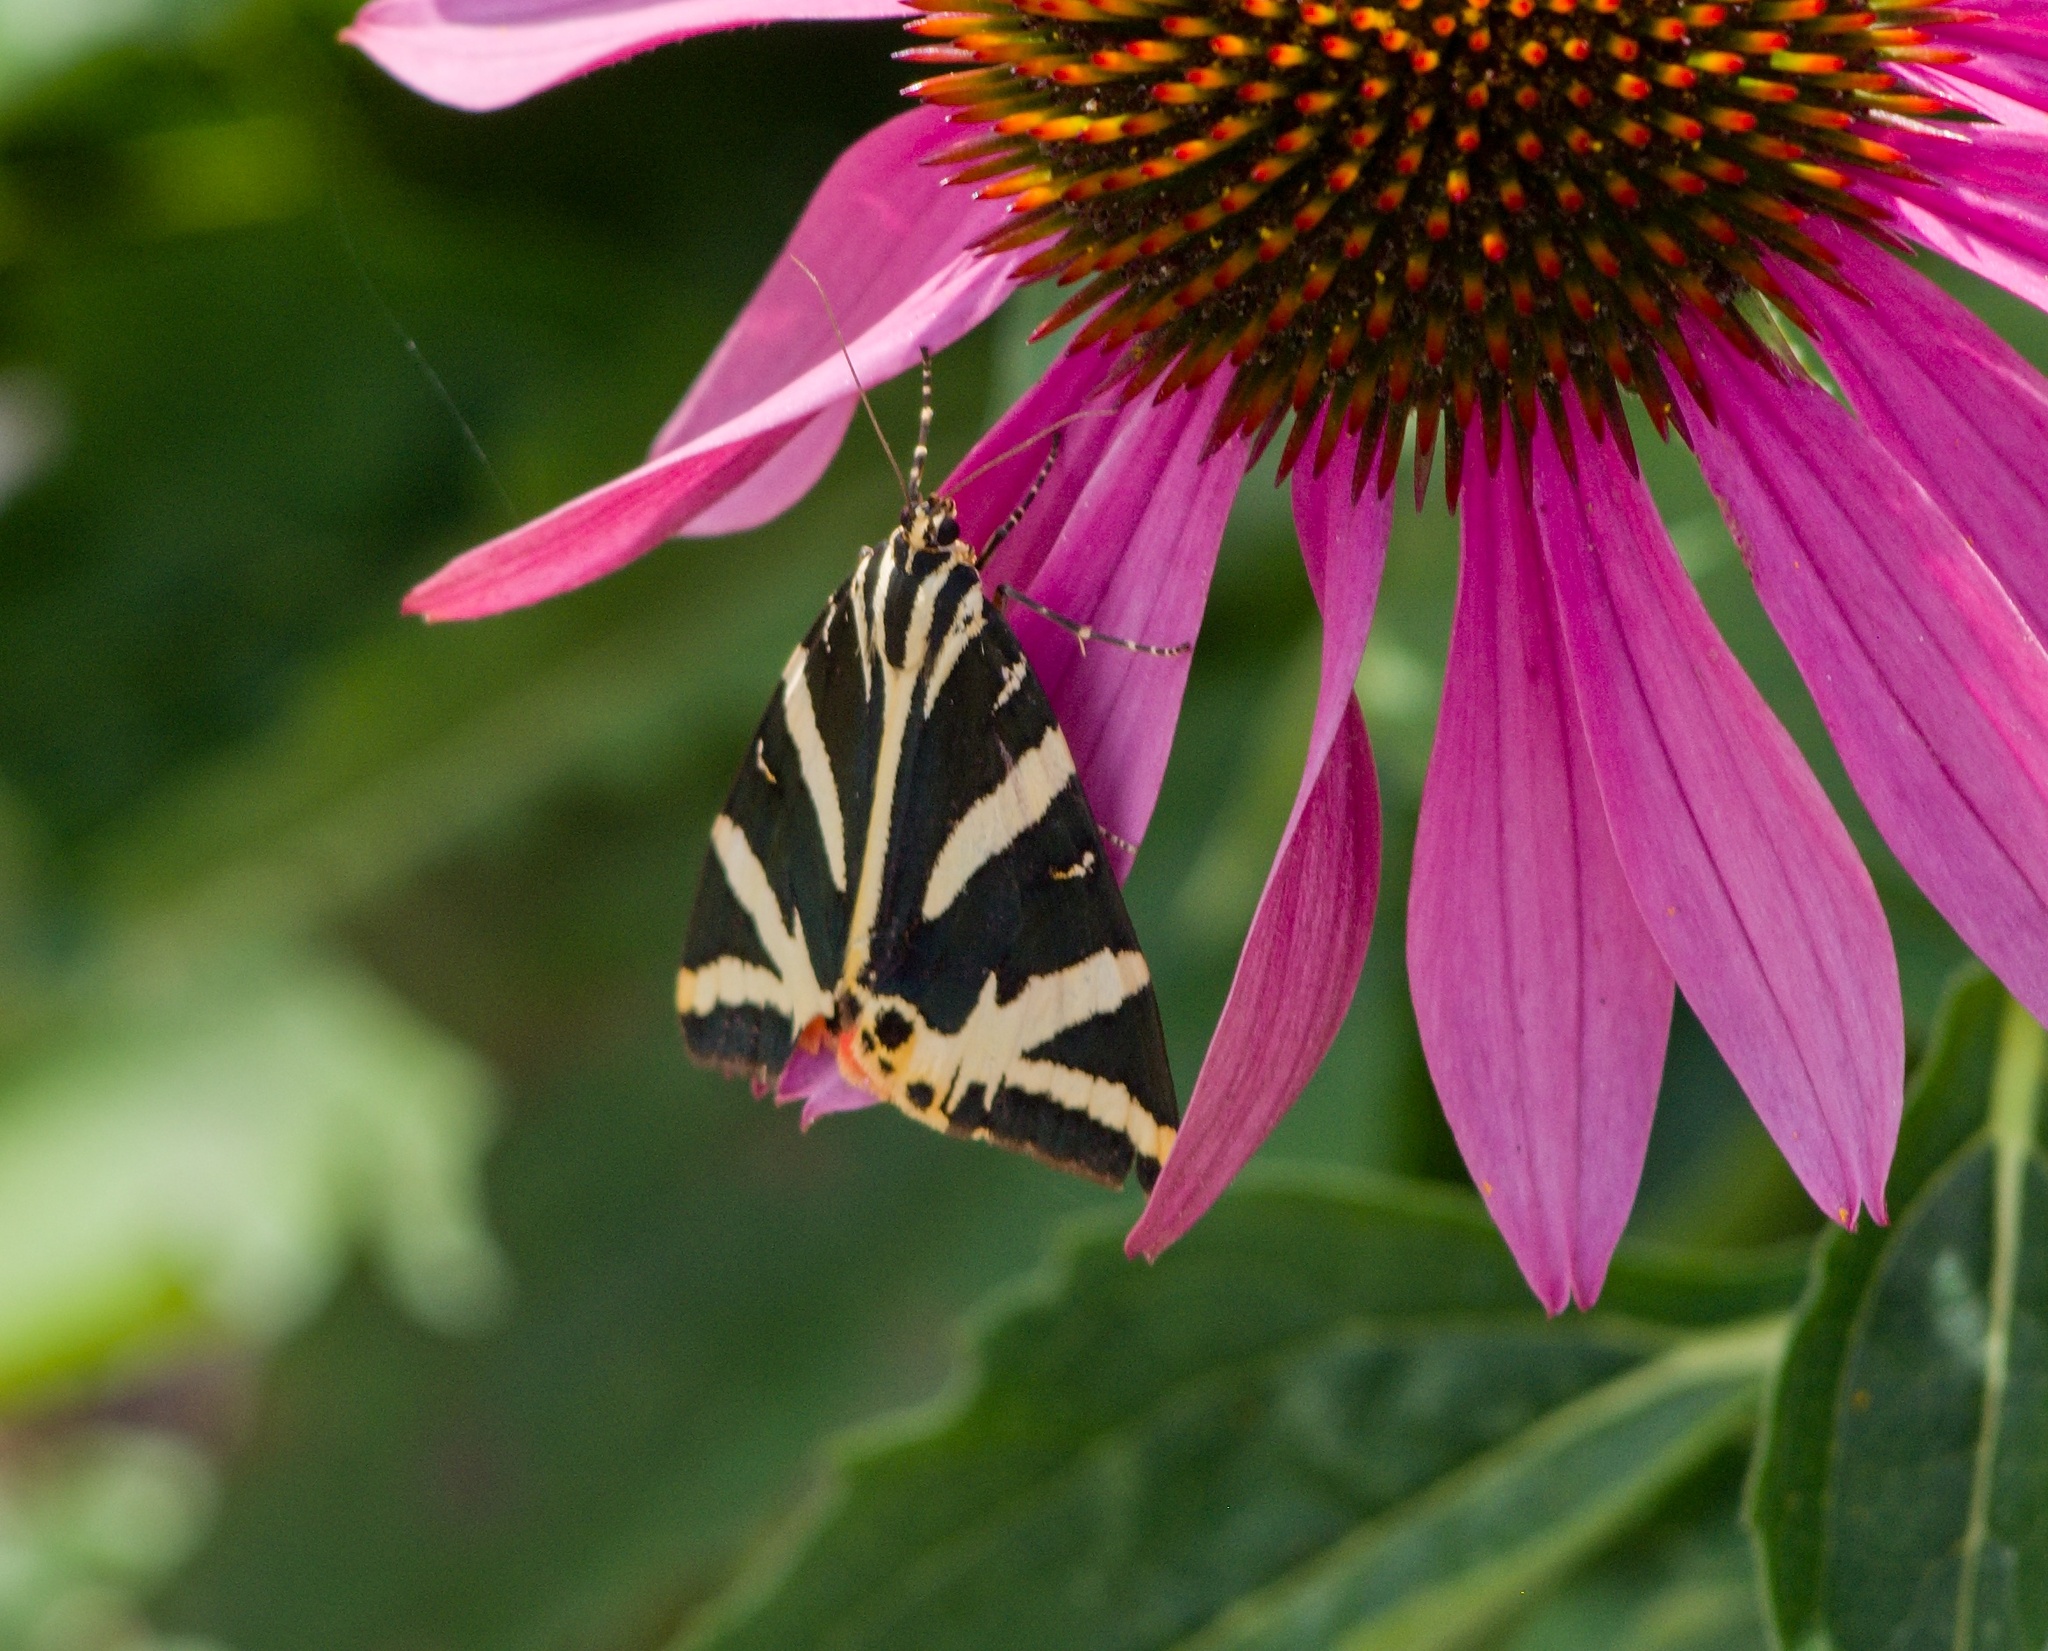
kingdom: Animalia
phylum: Arthropoda
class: Insecta
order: Lepidoptera
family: Erebidae
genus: Euplagia
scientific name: Euplagia quadripunctaria
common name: Jersey tiger
